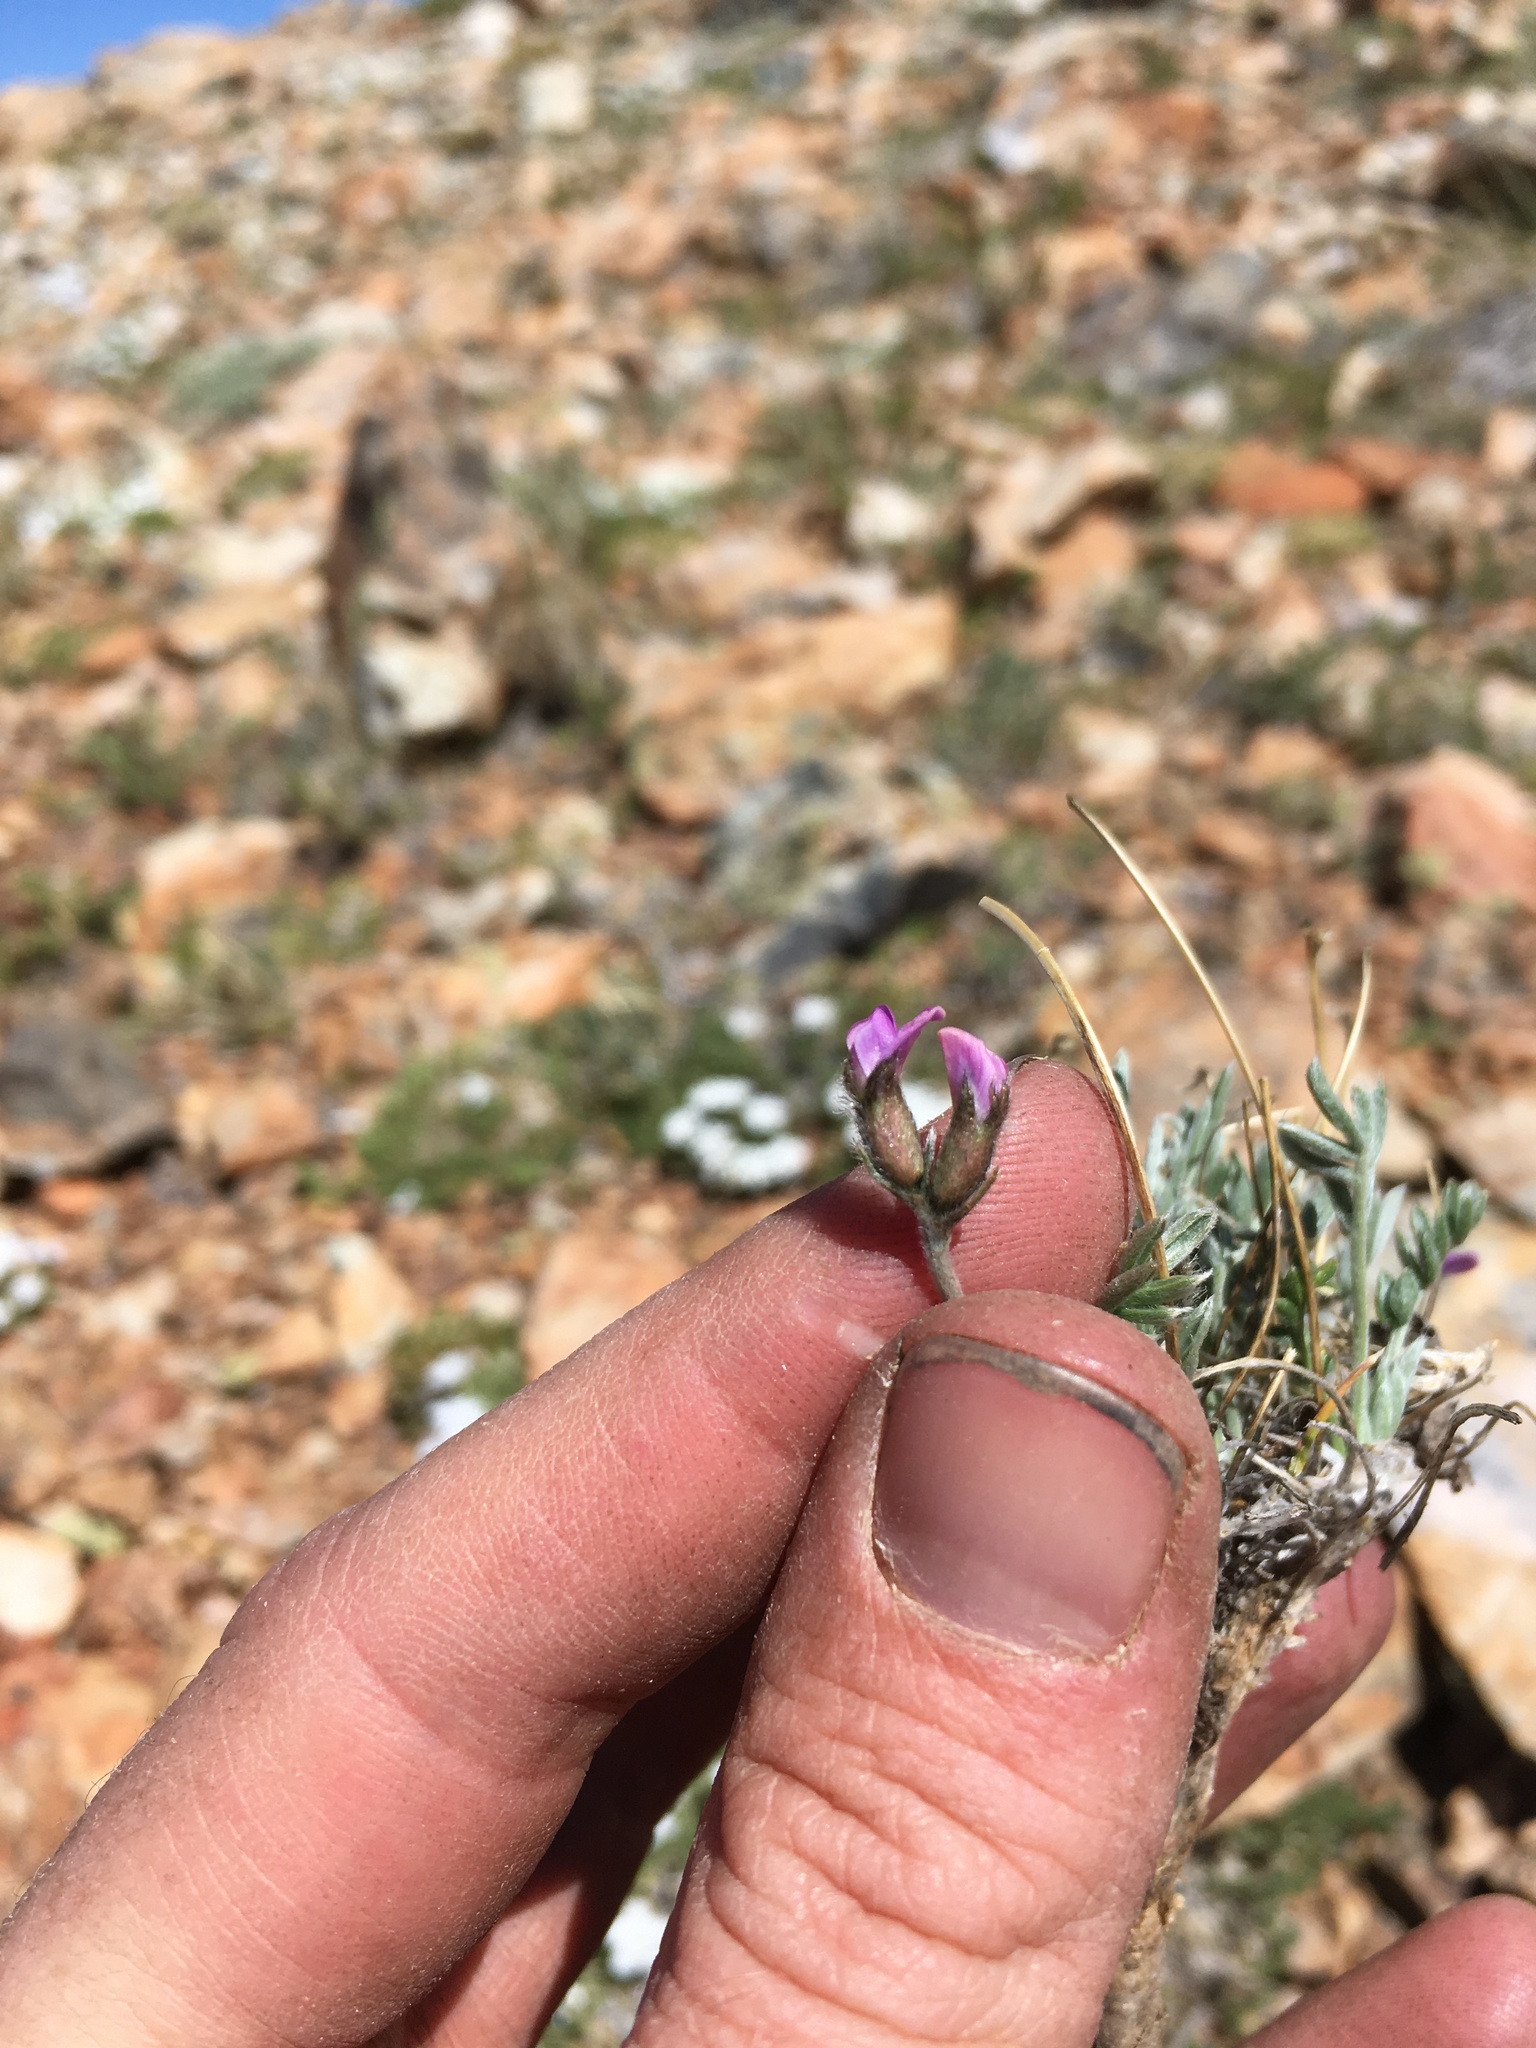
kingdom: Plantae
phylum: Tracheophyta
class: Magnoliopsida
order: Fabales
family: Fabaceae
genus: Oxytropis
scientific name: Oxytropis parryi
